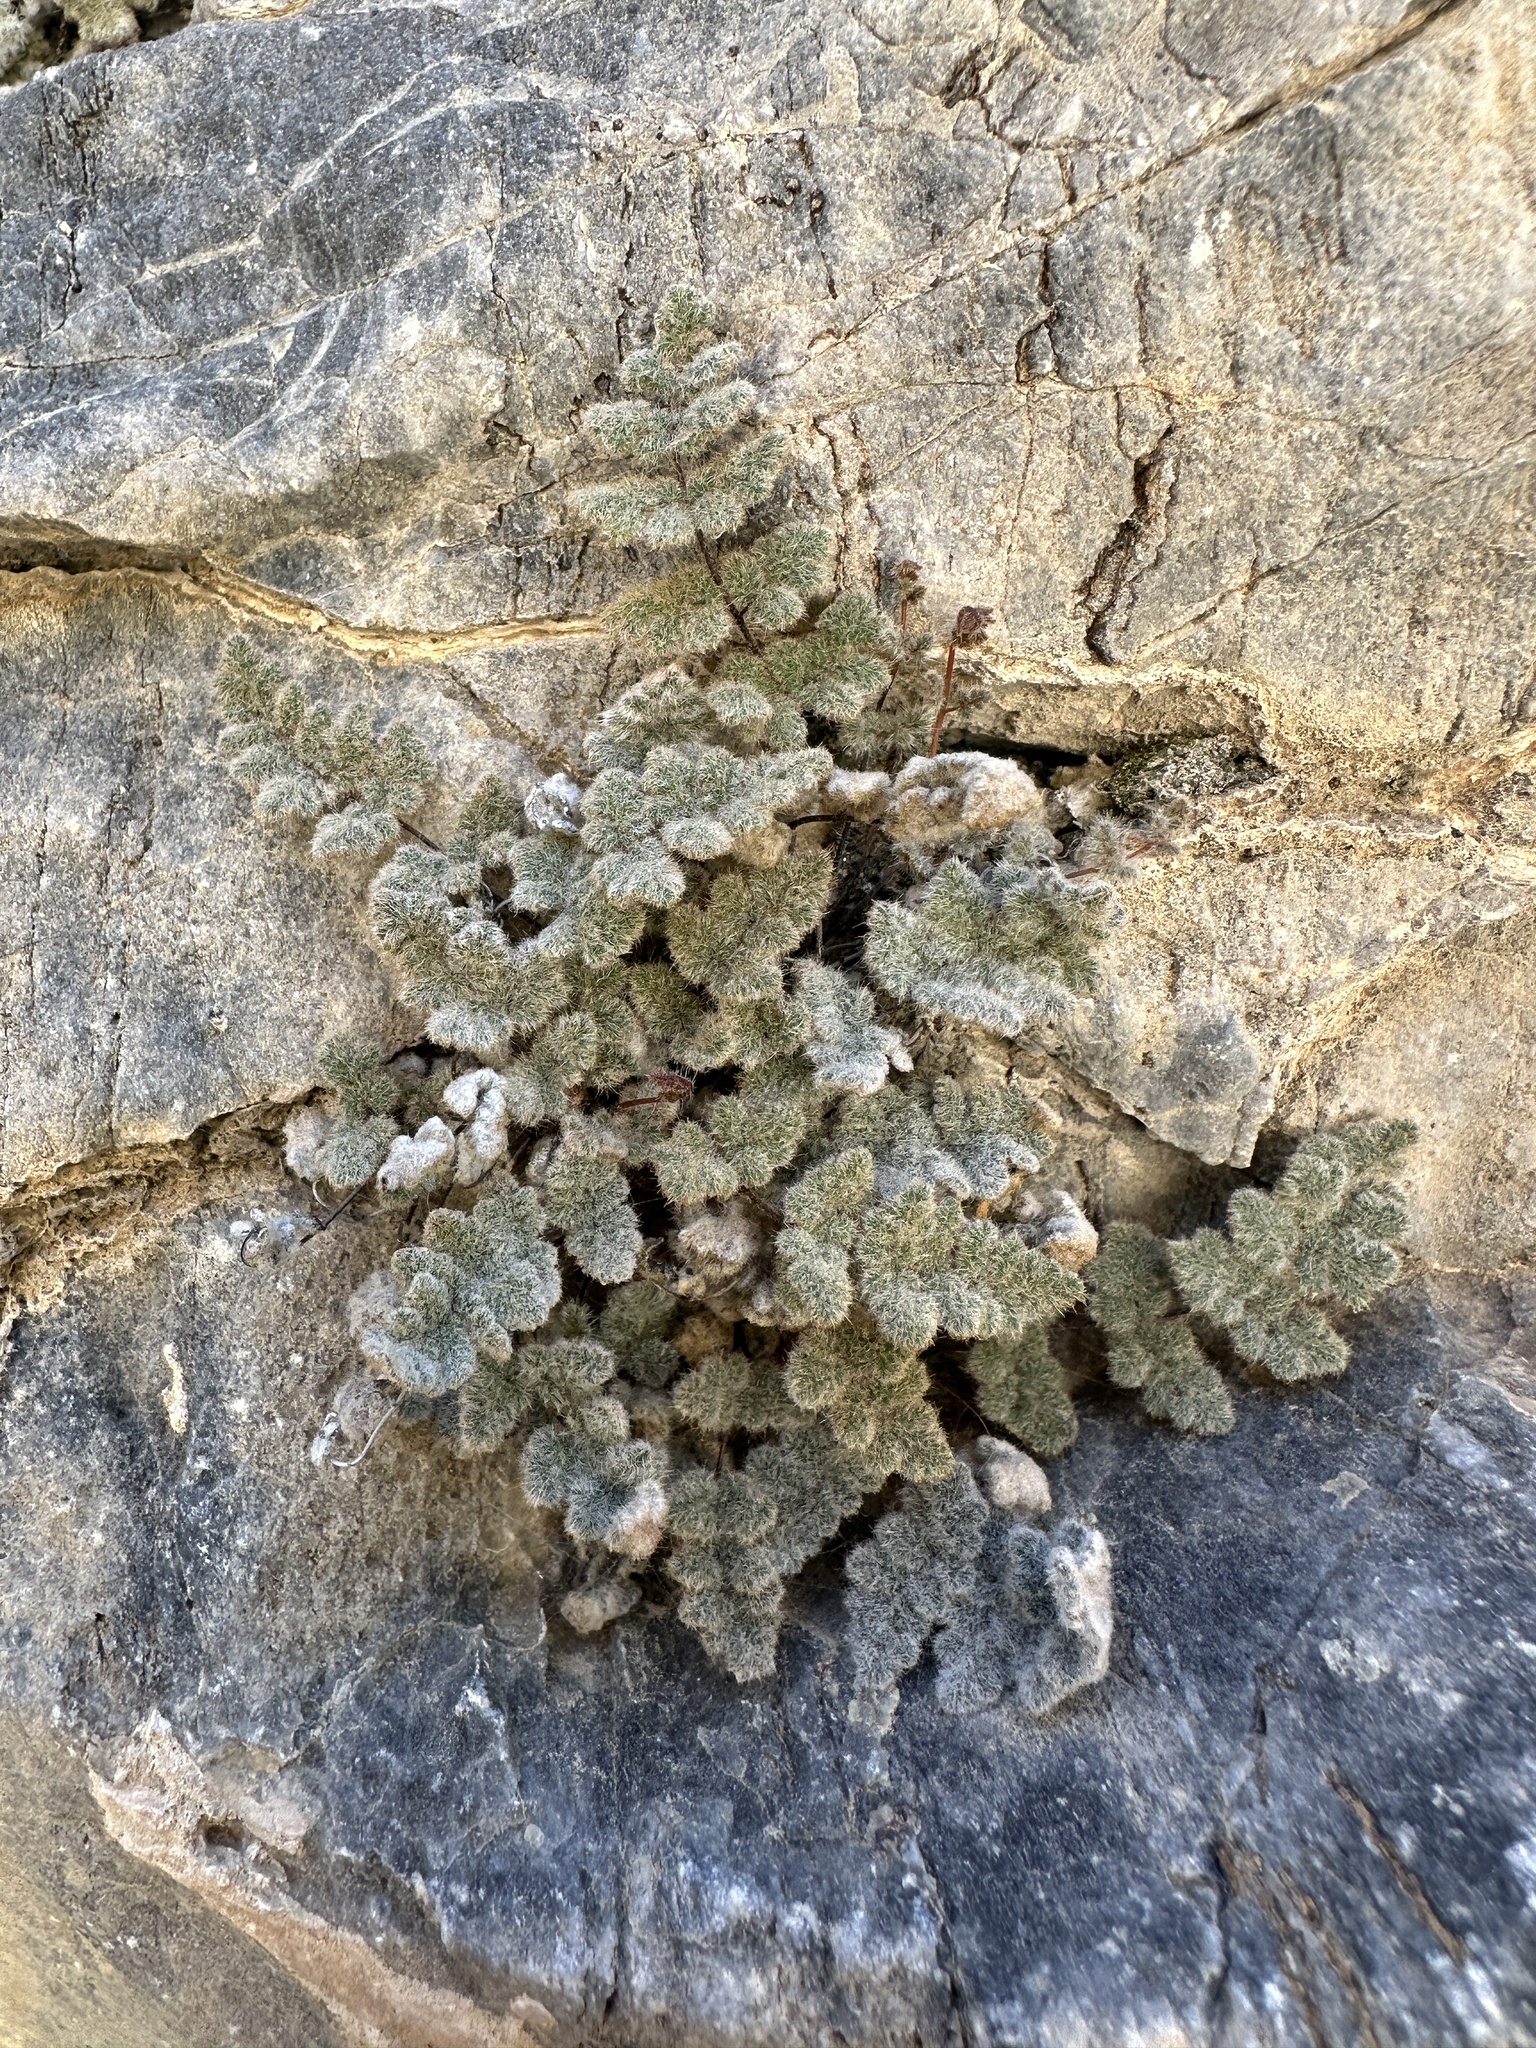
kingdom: Plantae
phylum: Tracheophyta
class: Polypodiopsida
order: Polypodiales
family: Pteridaceae
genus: Myriopteris
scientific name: Myriopteris parryi
